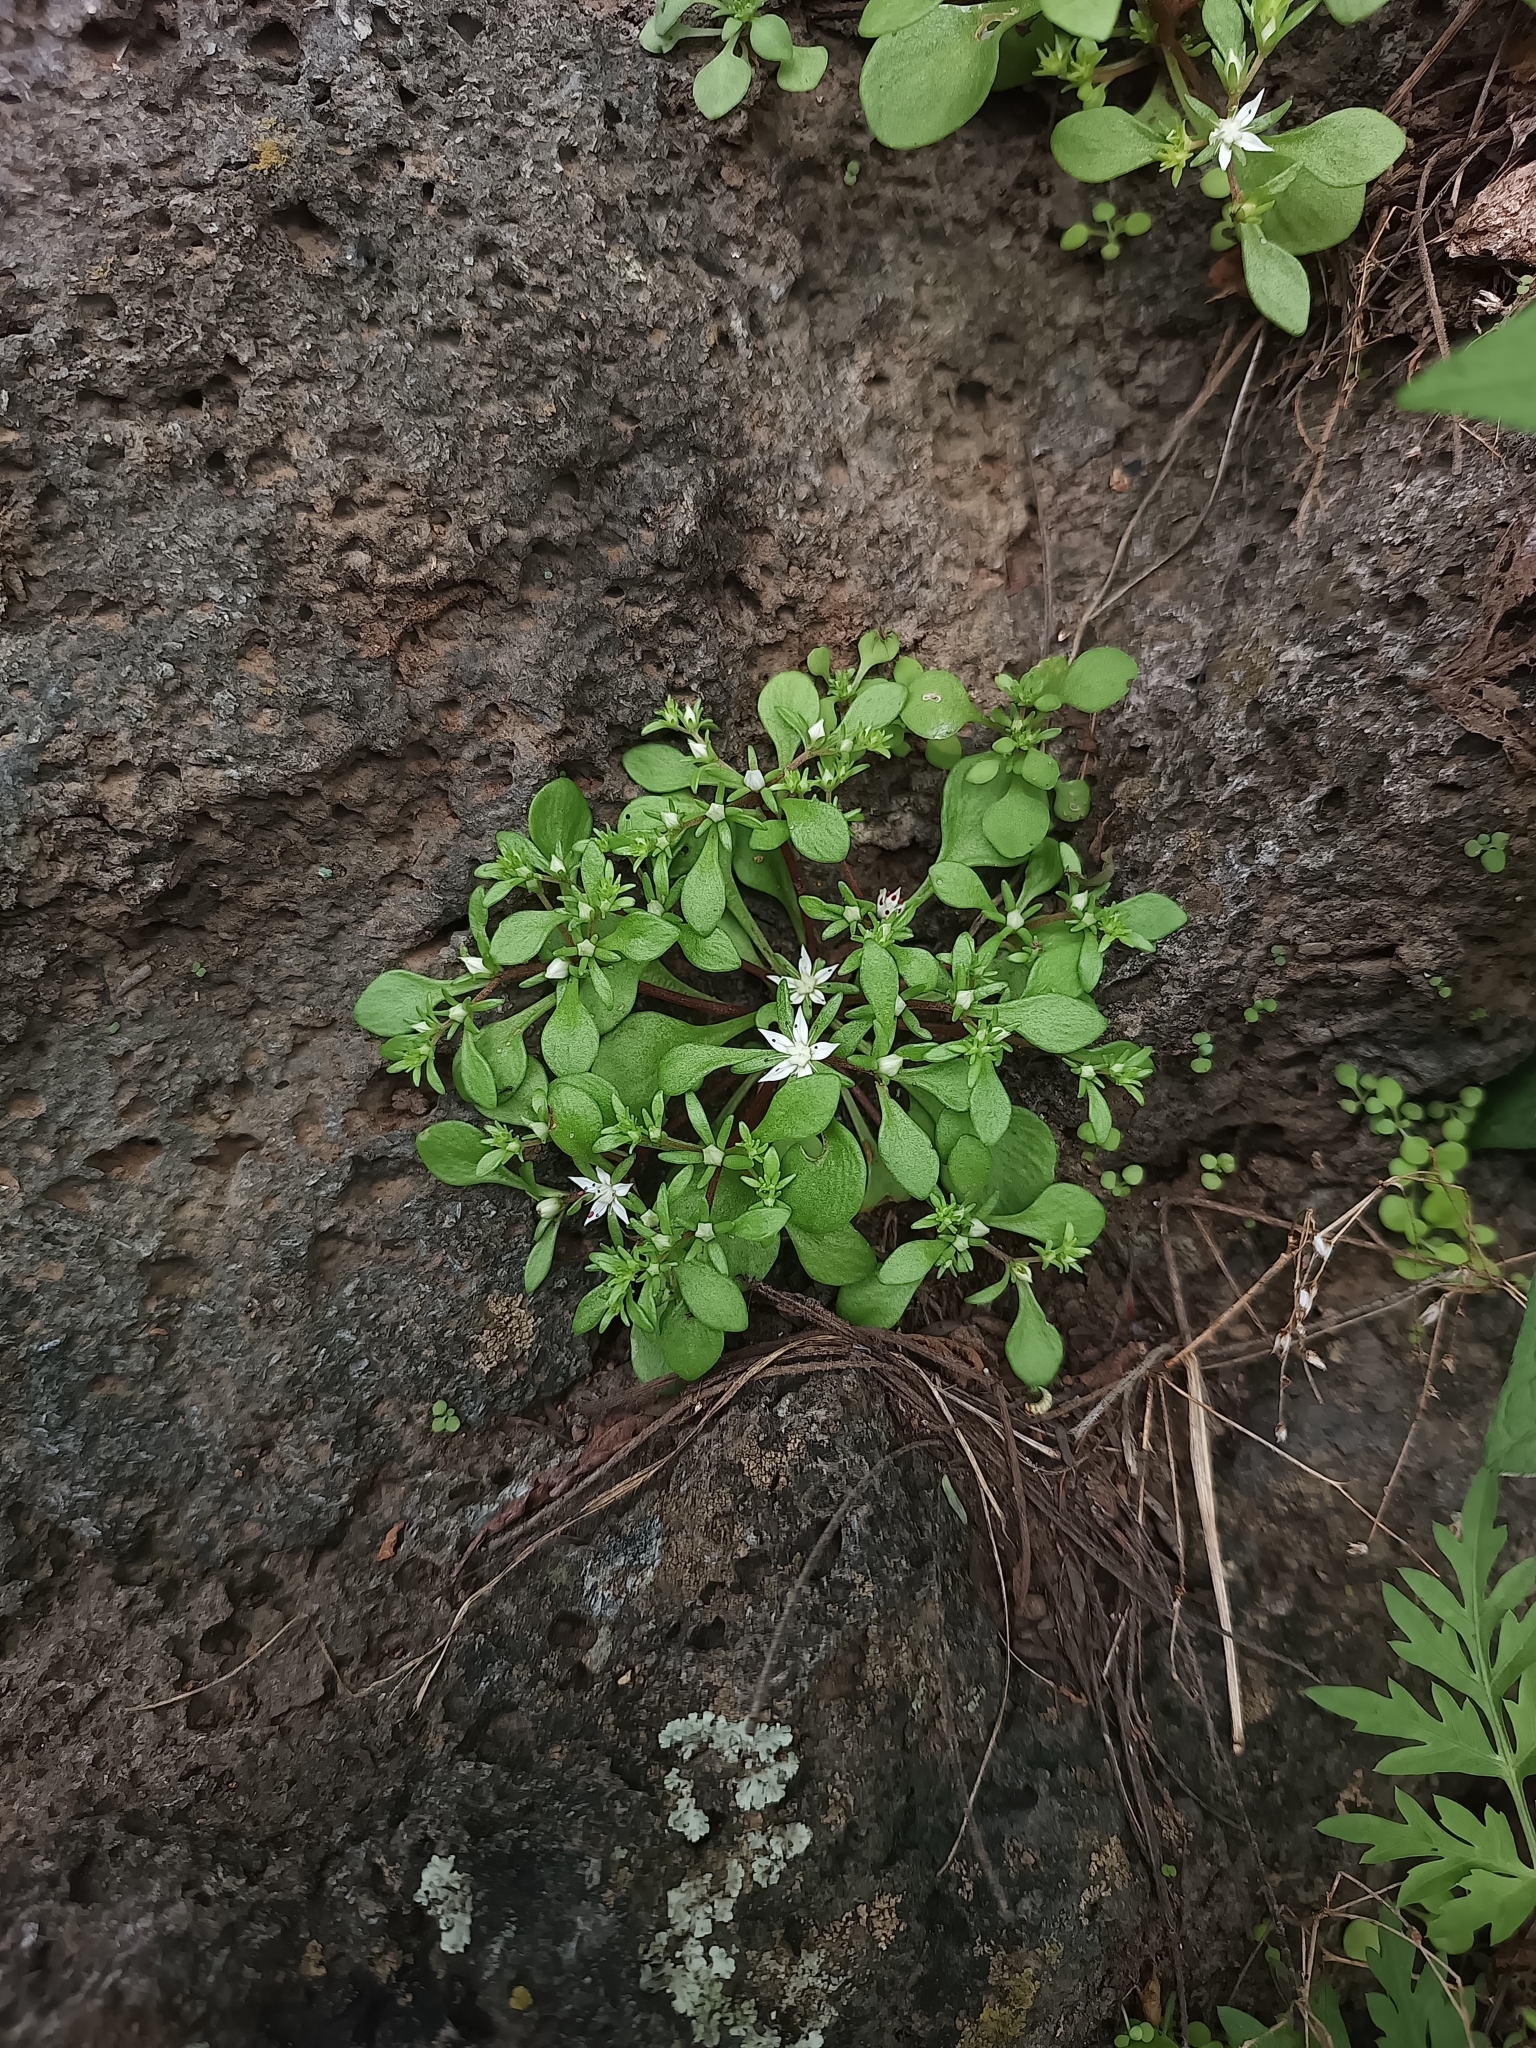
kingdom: Plantae
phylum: Tracheophyta
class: Magnoliopsida
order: Saxifragales
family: Crassulaceae
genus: Sedum
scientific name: Sedum jaliscanum
